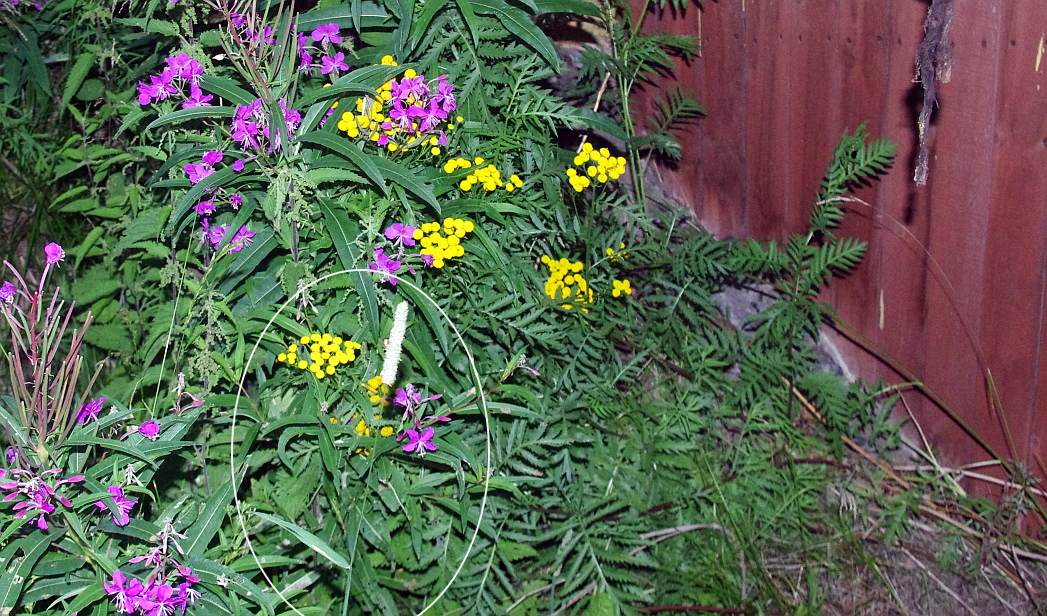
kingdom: Plantae
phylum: Tracheophyta
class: Liliopsida
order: Poales
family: Poaceae
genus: Phleum
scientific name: Phleum pratense
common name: Timothy grass
